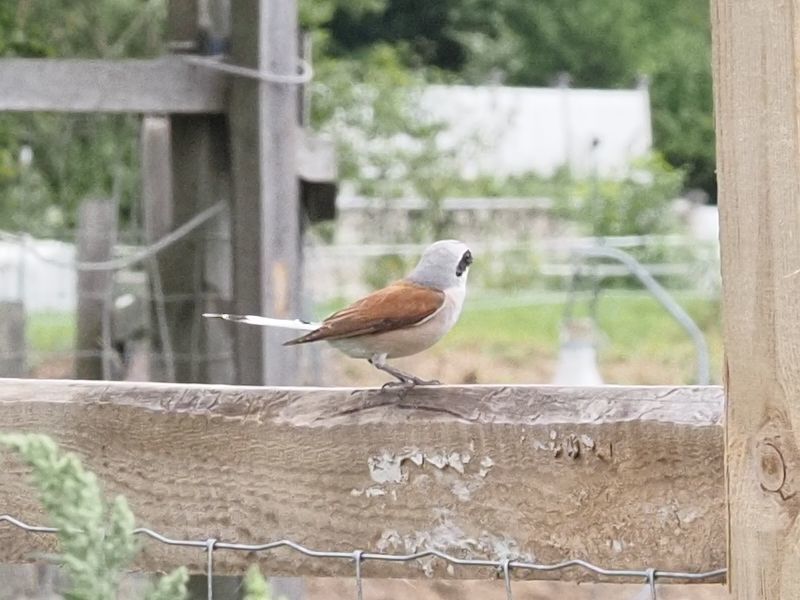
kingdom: Animalia
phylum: Chordata
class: Aves
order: Passeriformes
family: Laniidae
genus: Lanius
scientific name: Lanius collurio
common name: Red-backed shrike
